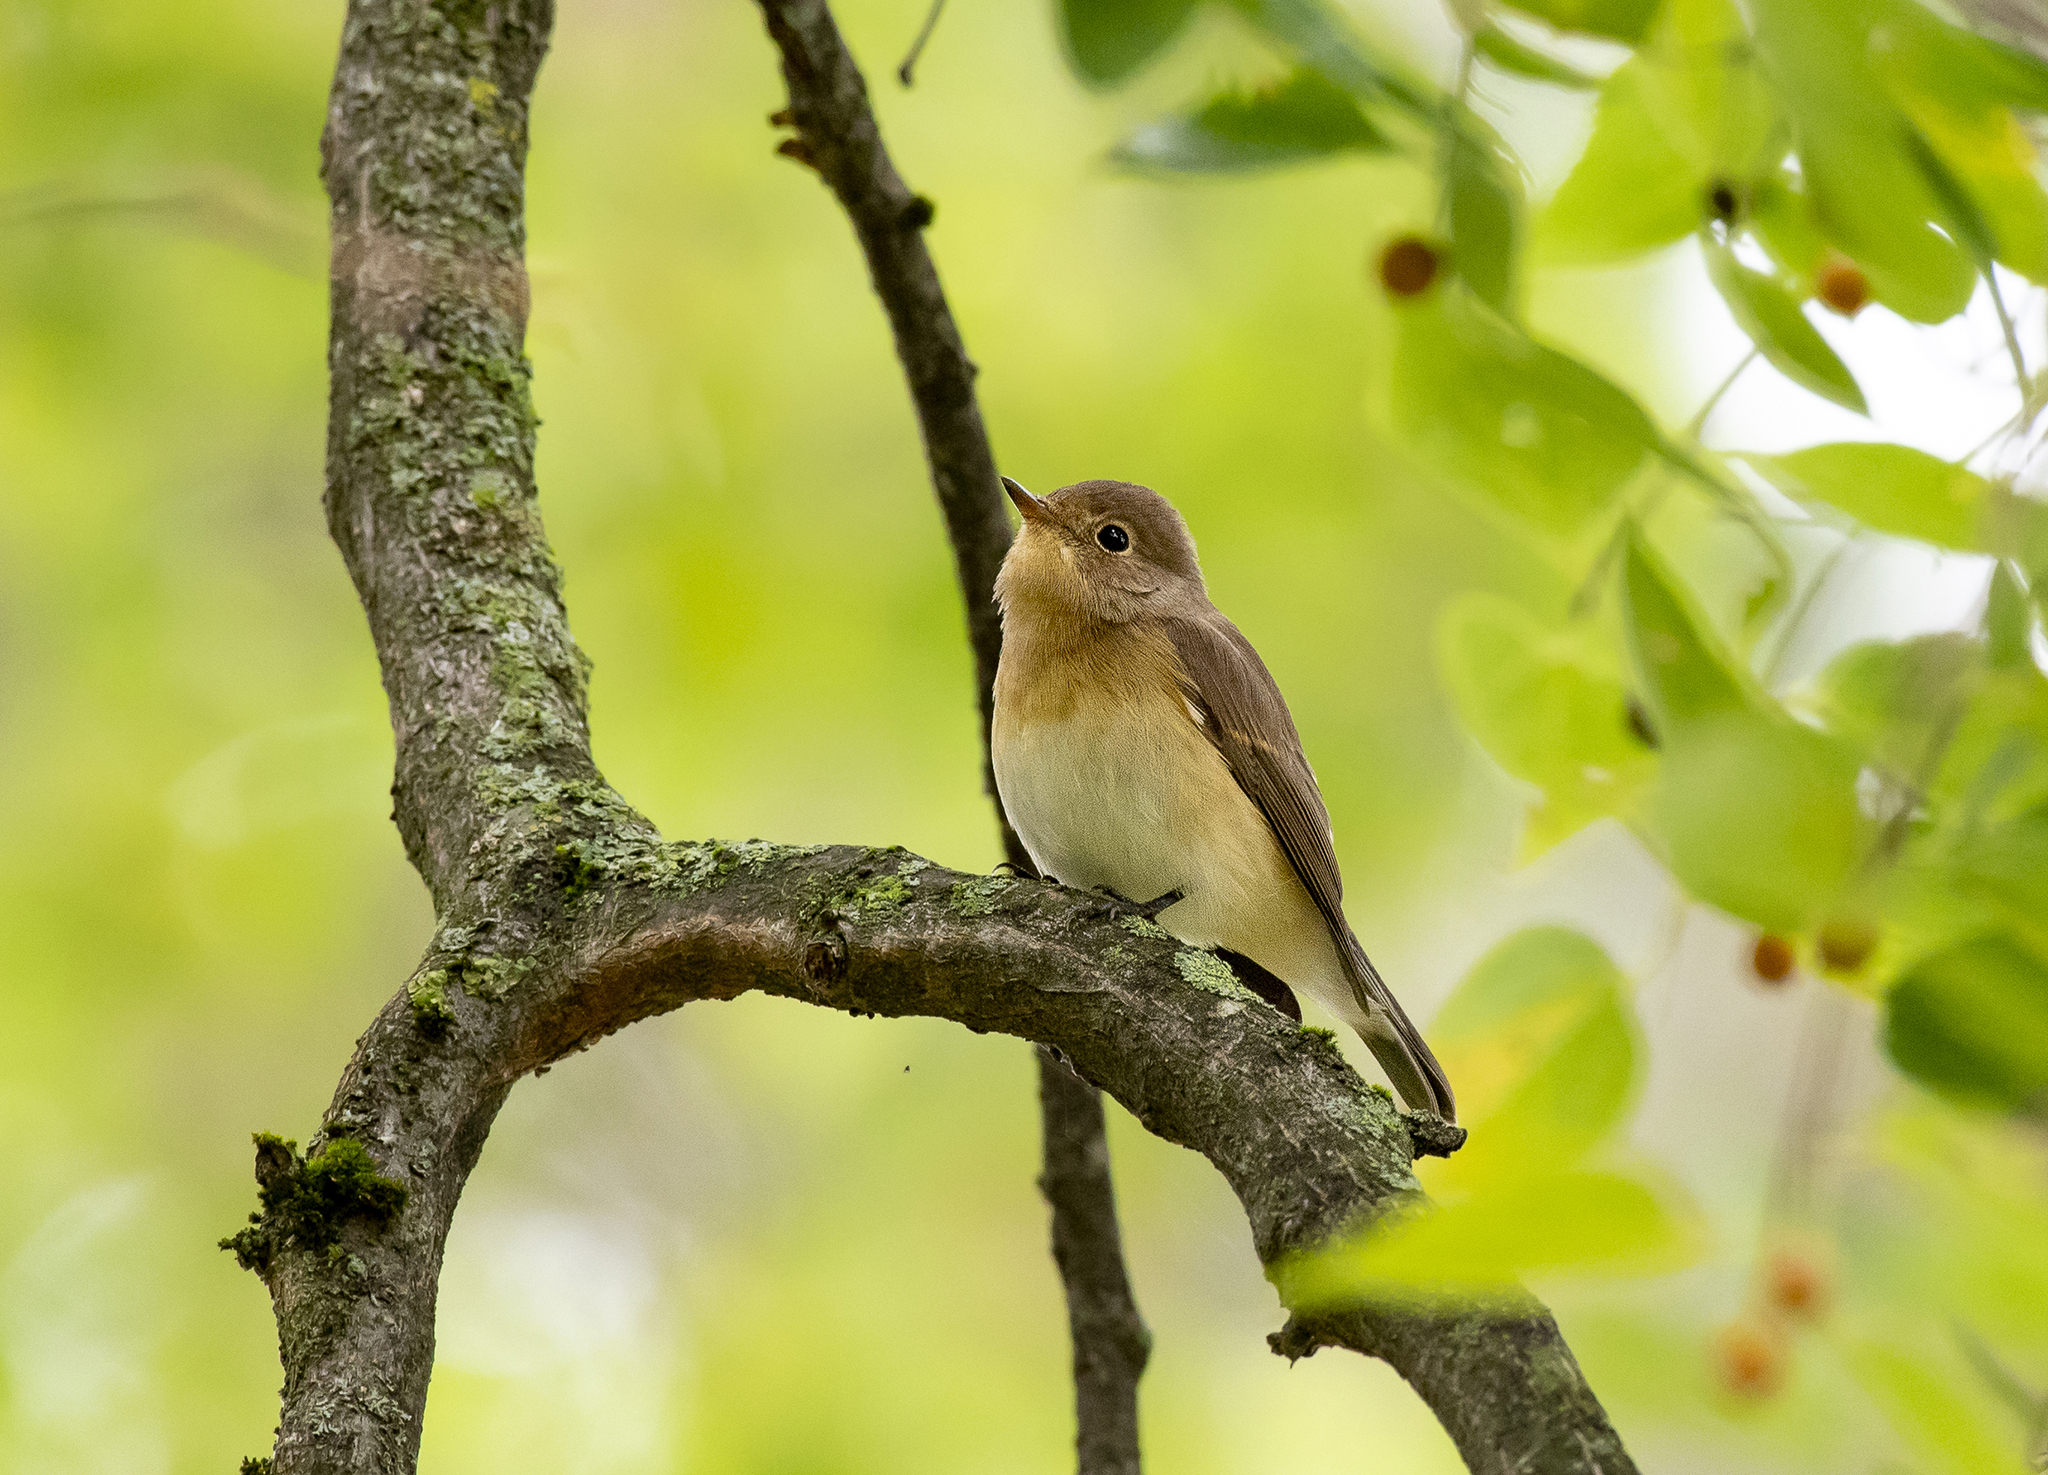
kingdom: Animalia
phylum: Chordata
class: Aves
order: Passeriformes
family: Muscicapidae
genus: Ficedula
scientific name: Ficedula parva
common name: Red-breasted flycatcher
